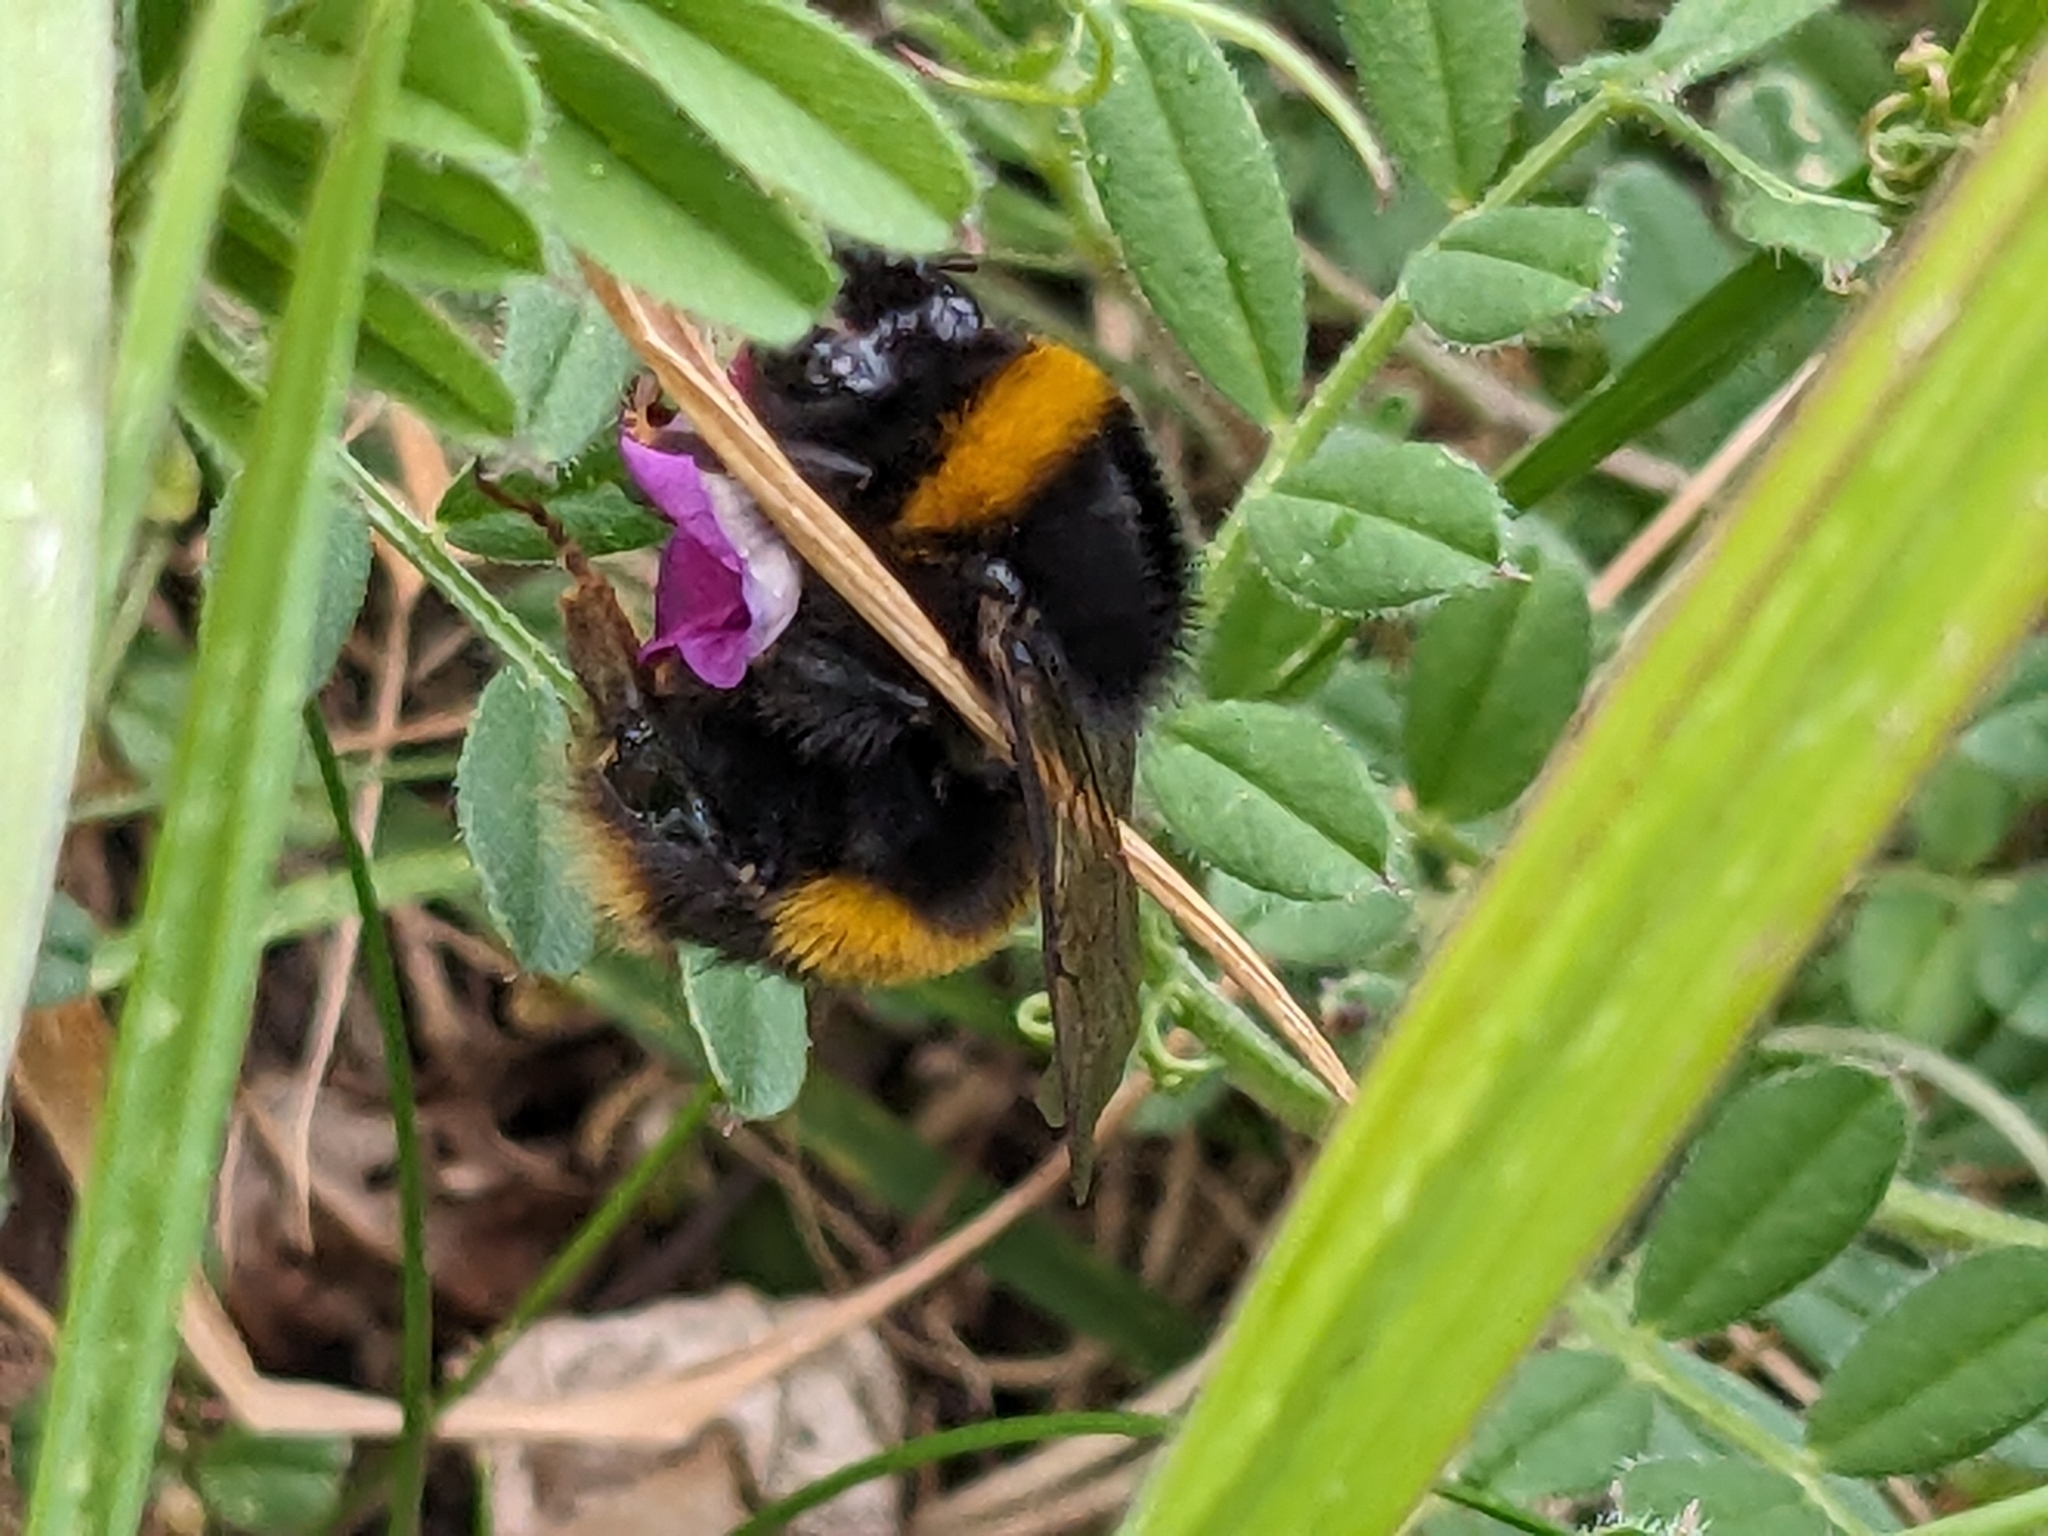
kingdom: Animalia
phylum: Arthropoda
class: Insecta
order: Hymenoptera
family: Apidae
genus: Bombus
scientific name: Bombus terrestris
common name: Buff-tailed bumblebee
